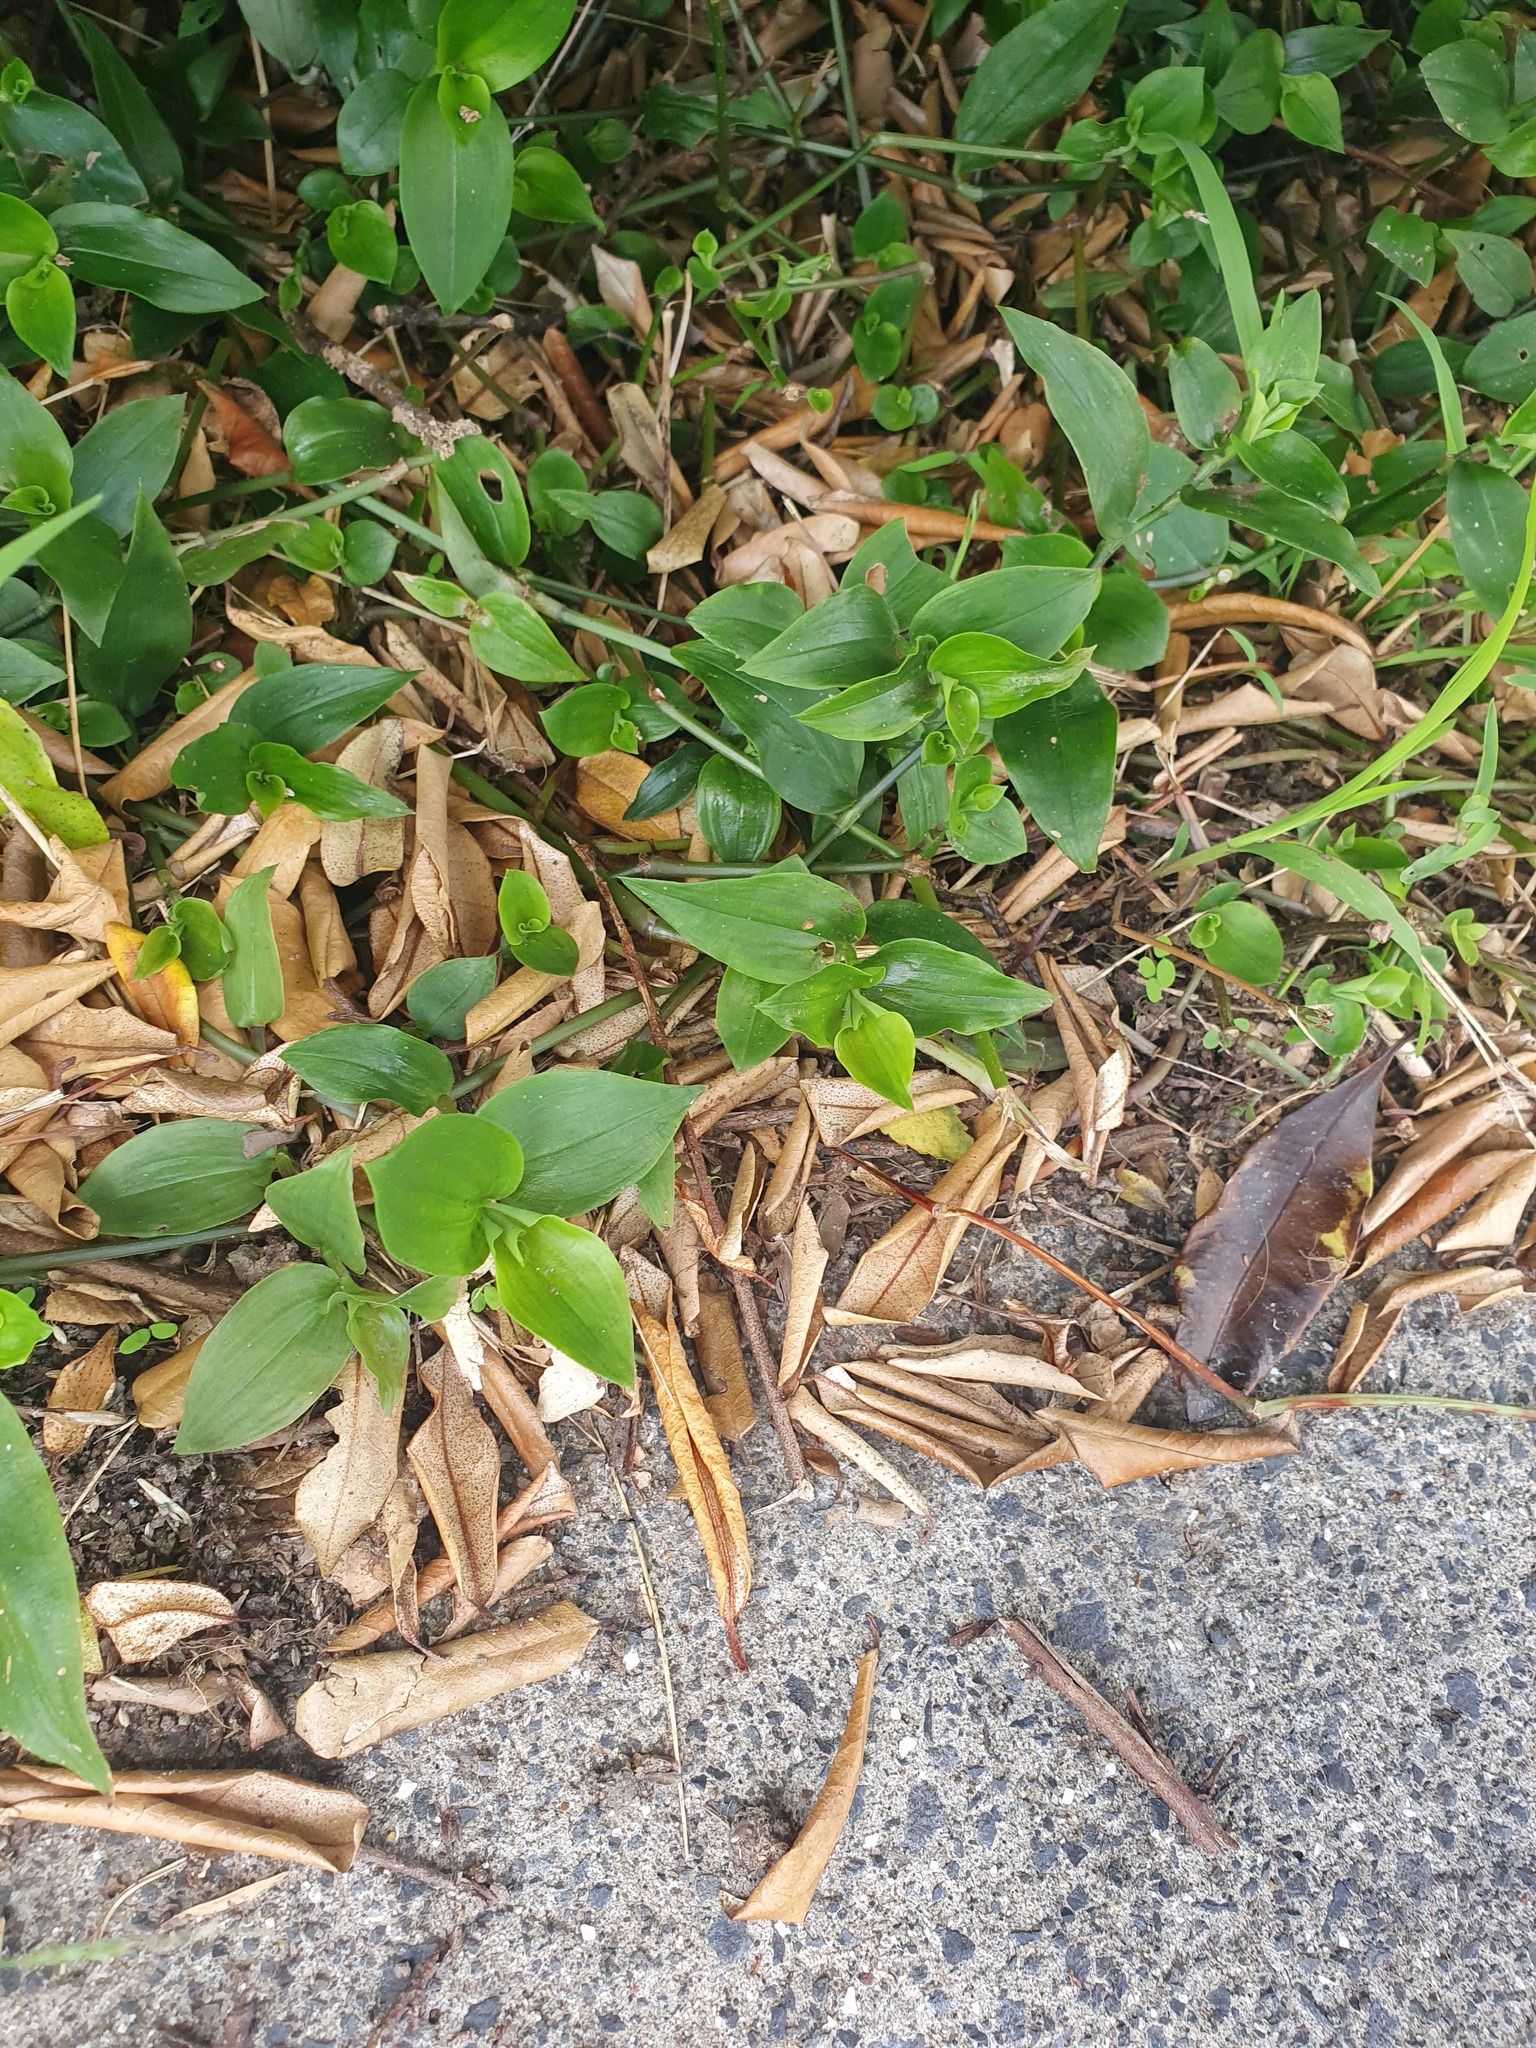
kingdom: Plantae
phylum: Tracheophyta
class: Liliopsida
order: Commelinales
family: Commelinaceae
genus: Tradescantia
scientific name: Tradescantia fluminensis
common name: Wandering-jew
